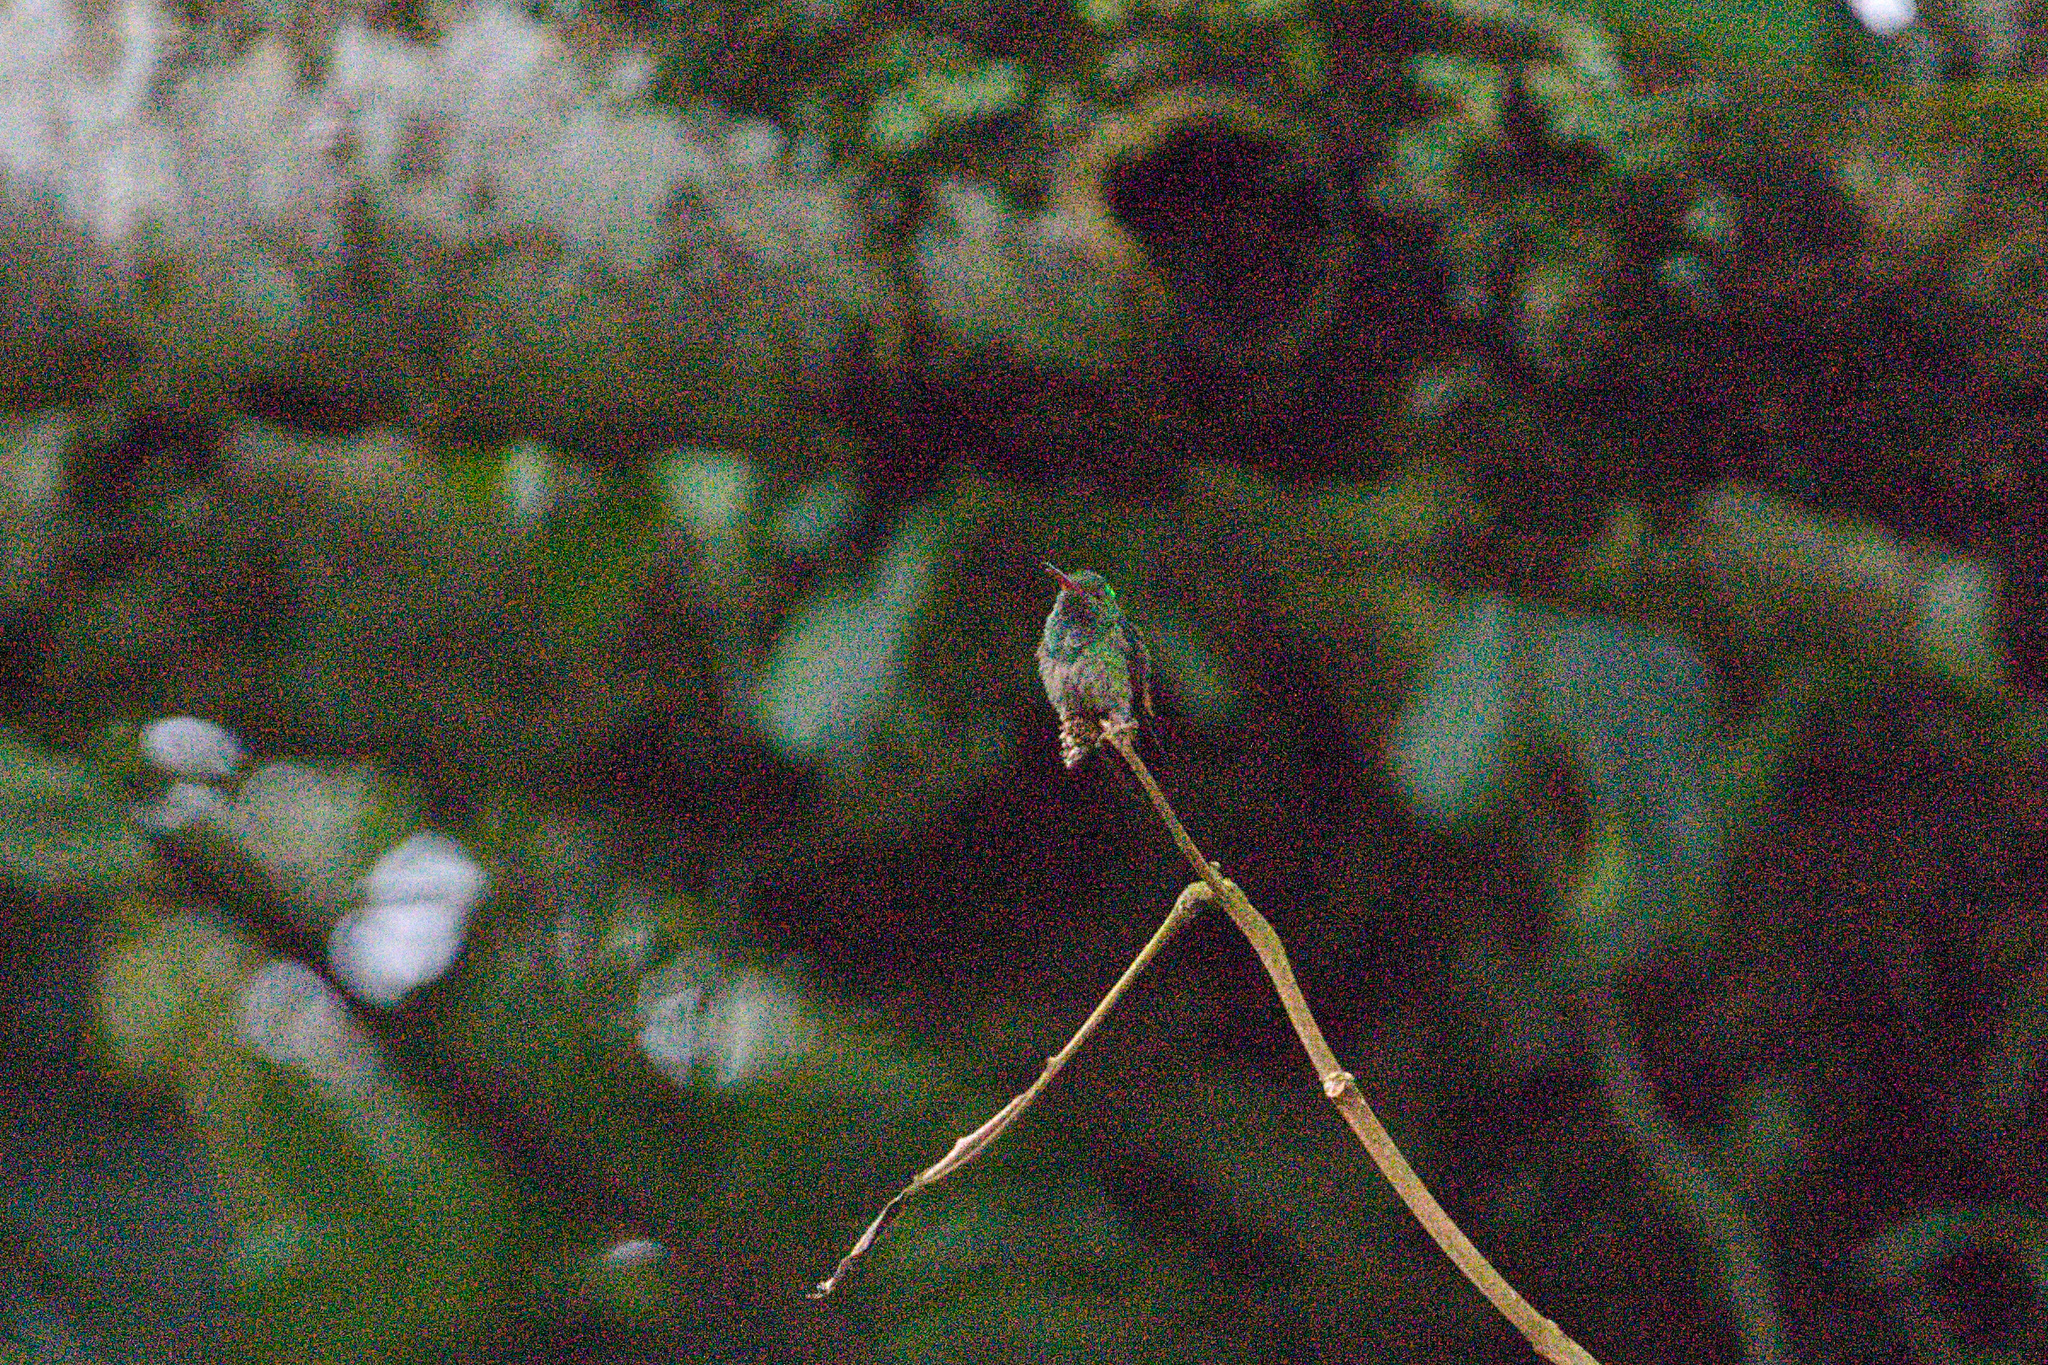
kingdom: Animalia
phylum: Chordata
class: Aves
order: Apodiformes
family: Trochilidae
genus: Amazilia
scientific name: Amazilia tzacatl
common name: Rufous-tailed hummingbird
